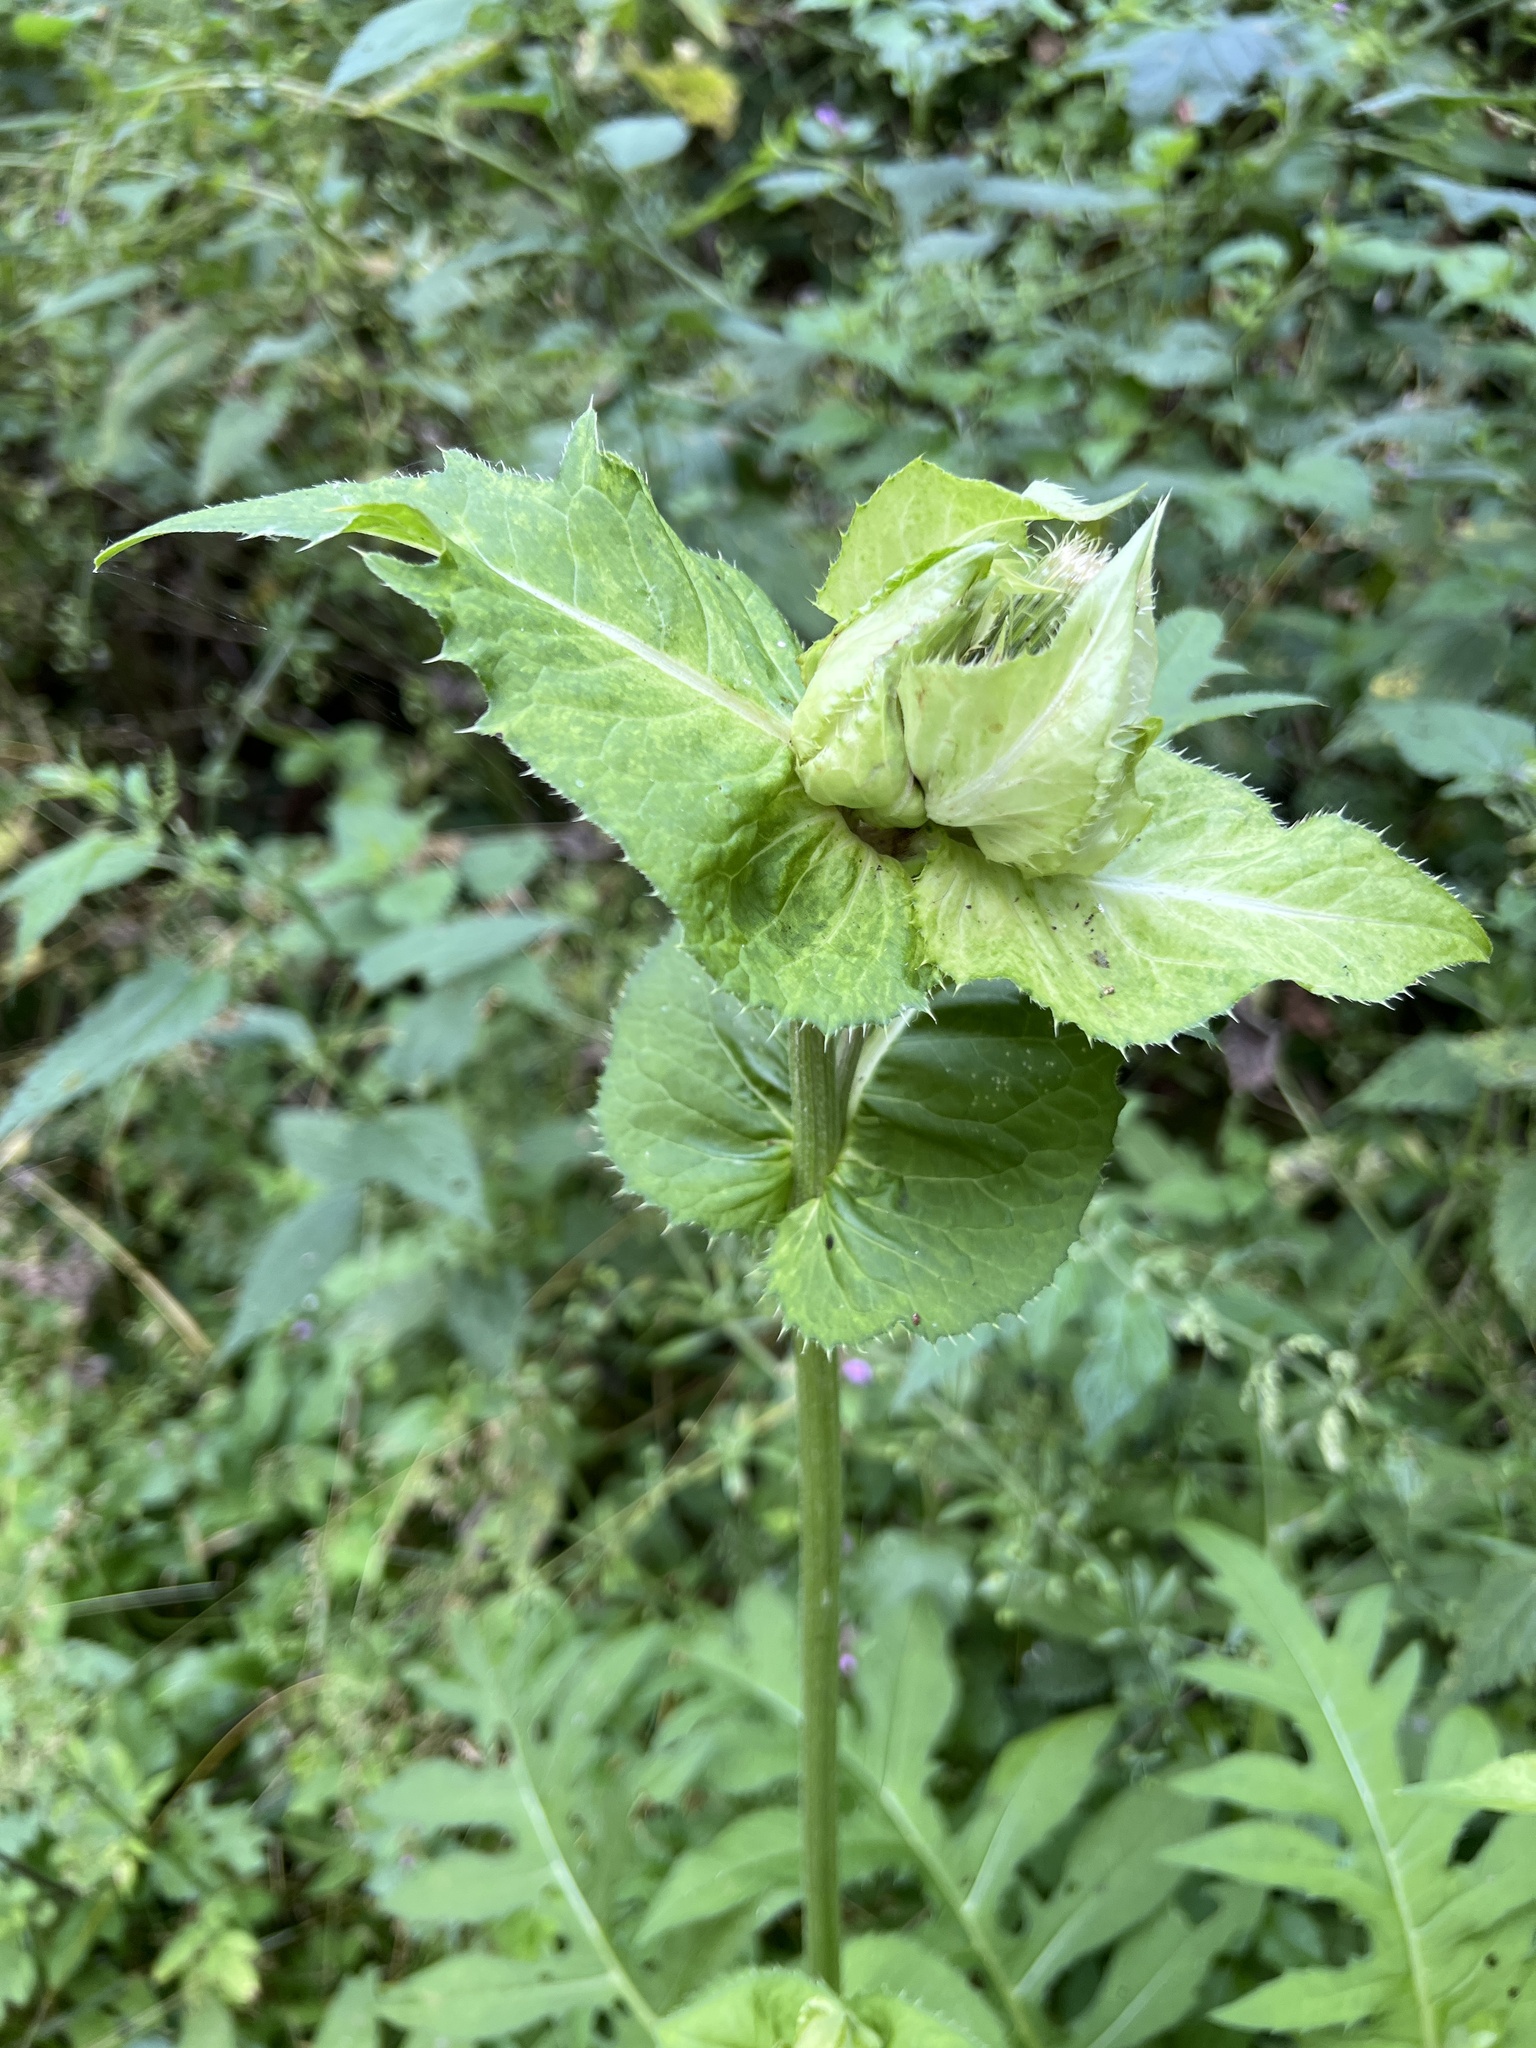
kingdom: Plantae
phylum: Tracheophyta
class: Magnoliopsida
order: Asterales
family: Asteraceae
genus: Cirsium
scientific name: Cirsium oleraceum
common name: Cabbage thistle
